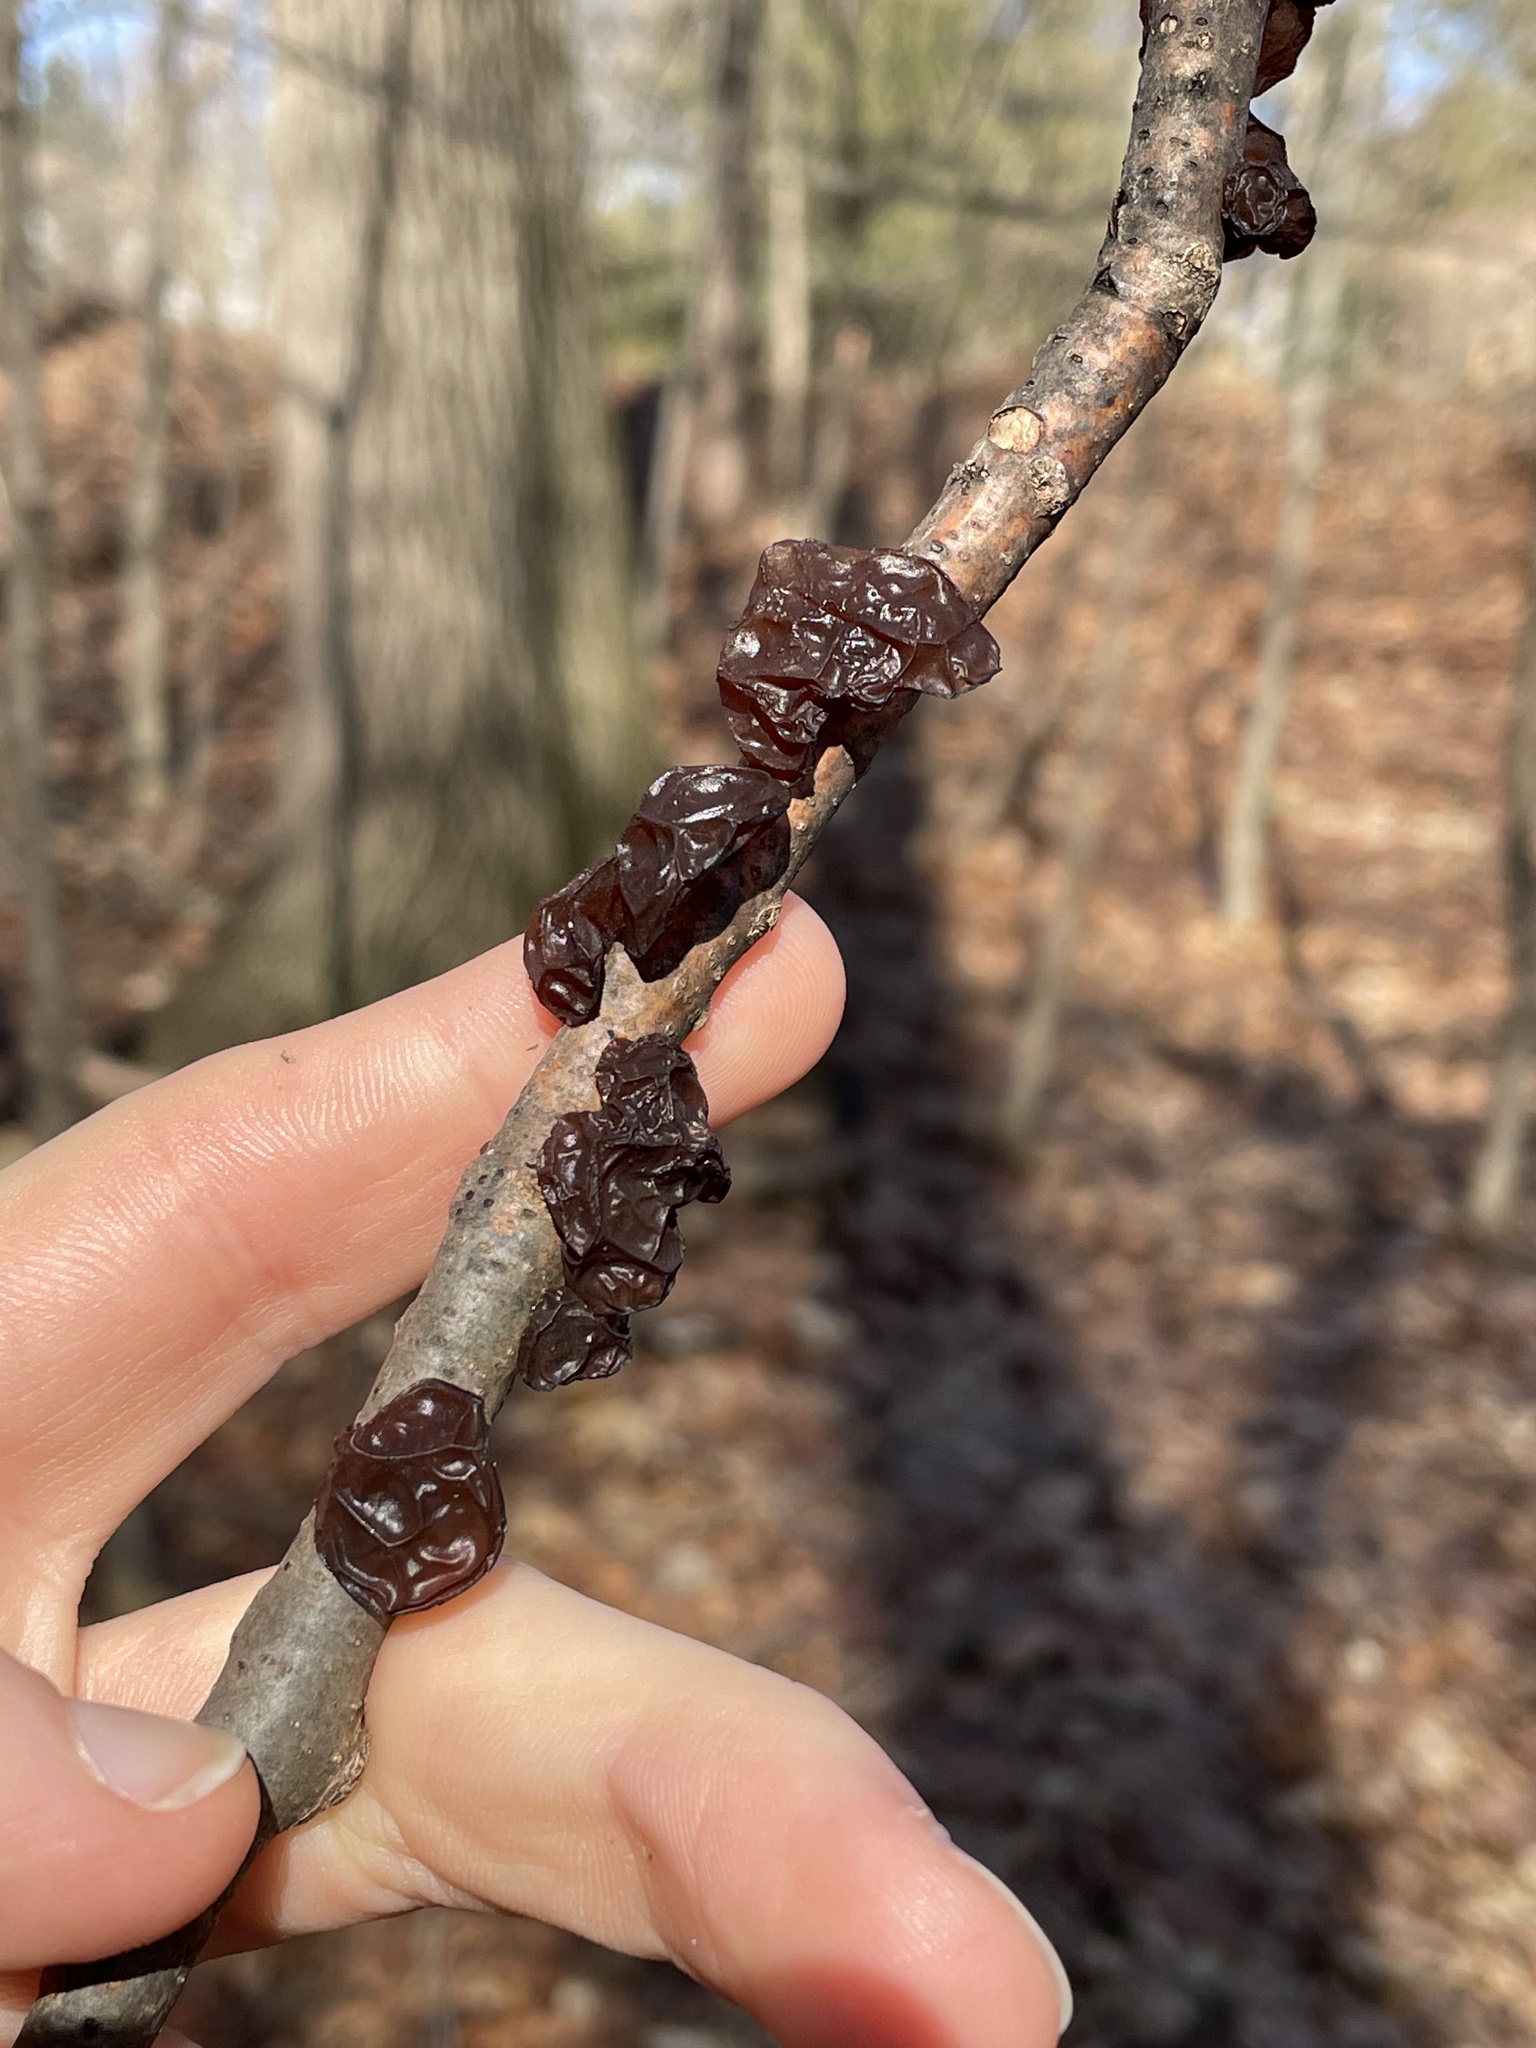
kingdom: Fungi
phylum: Basidiomycota
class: Agaricomycetes
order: Auriculariales
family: Auriculariaceae
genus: Exidia
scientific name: Exidia
